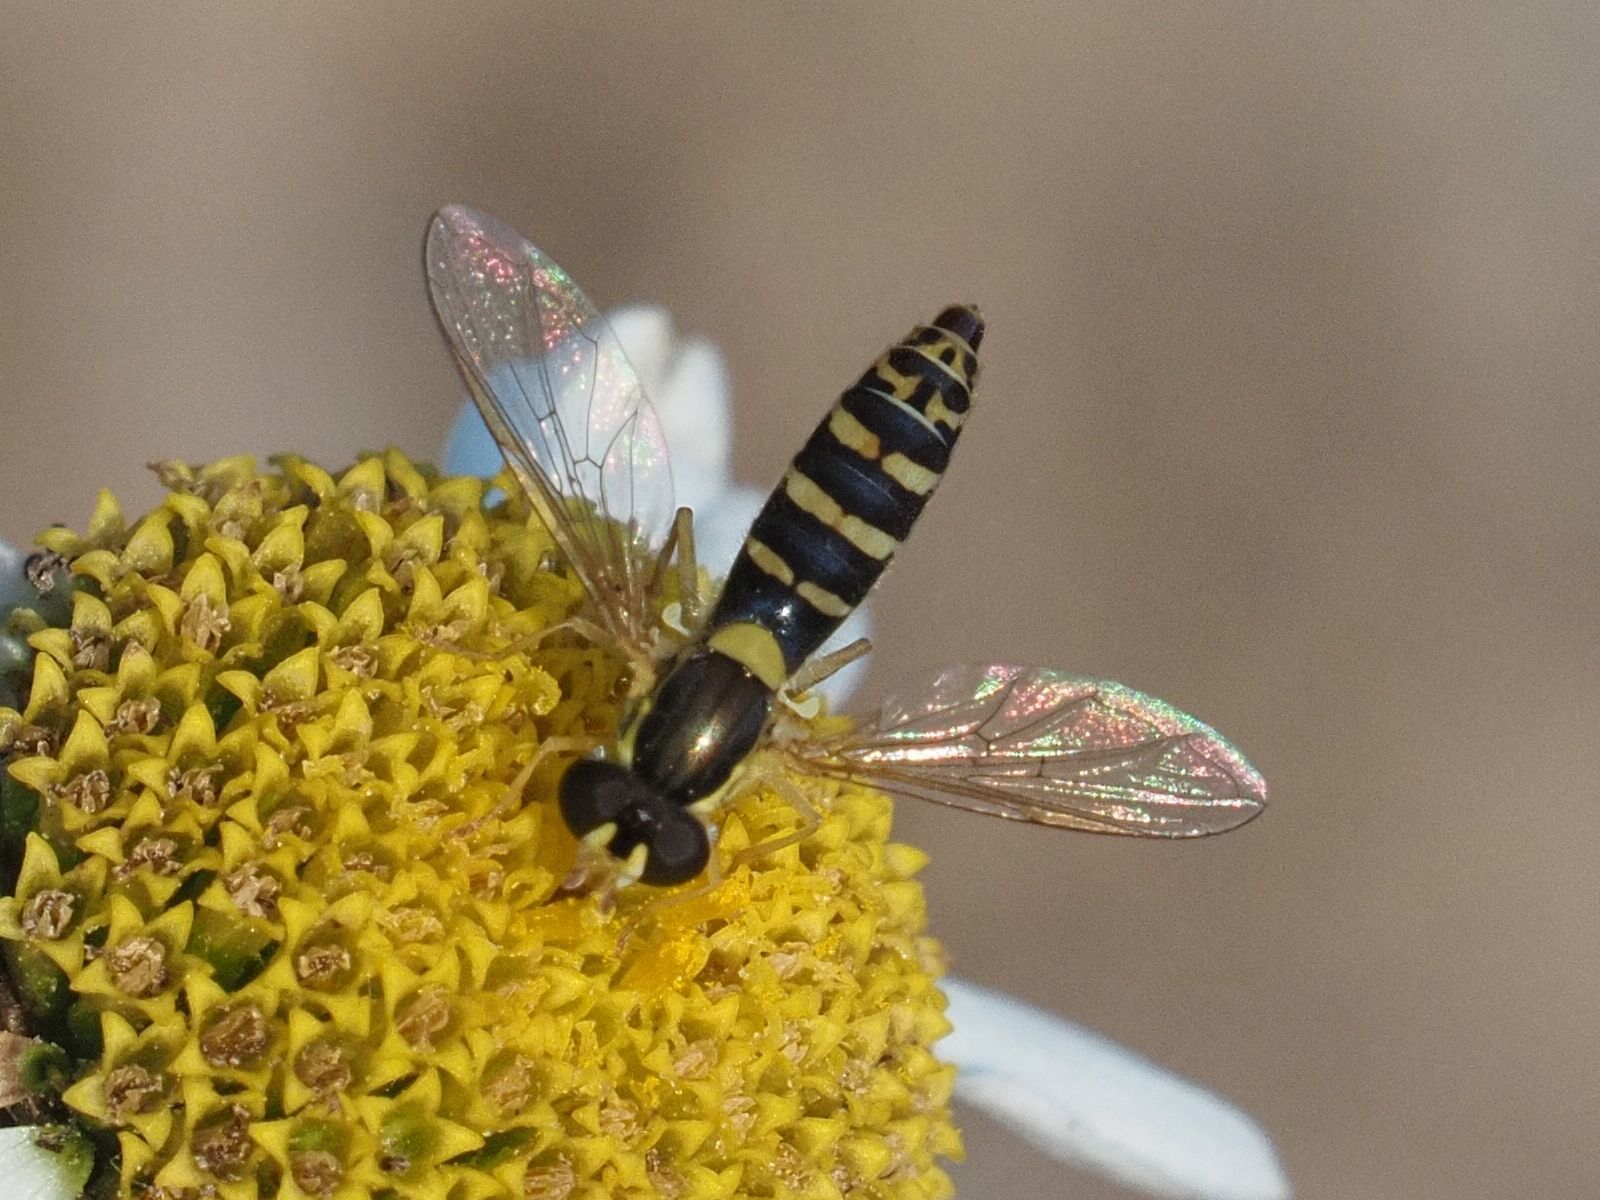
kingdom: Animalia
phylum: Arthropoda
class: Insecta
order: Diptera
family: Syrphidae
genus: Sphaerophoria
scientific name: Sphaerophoria
